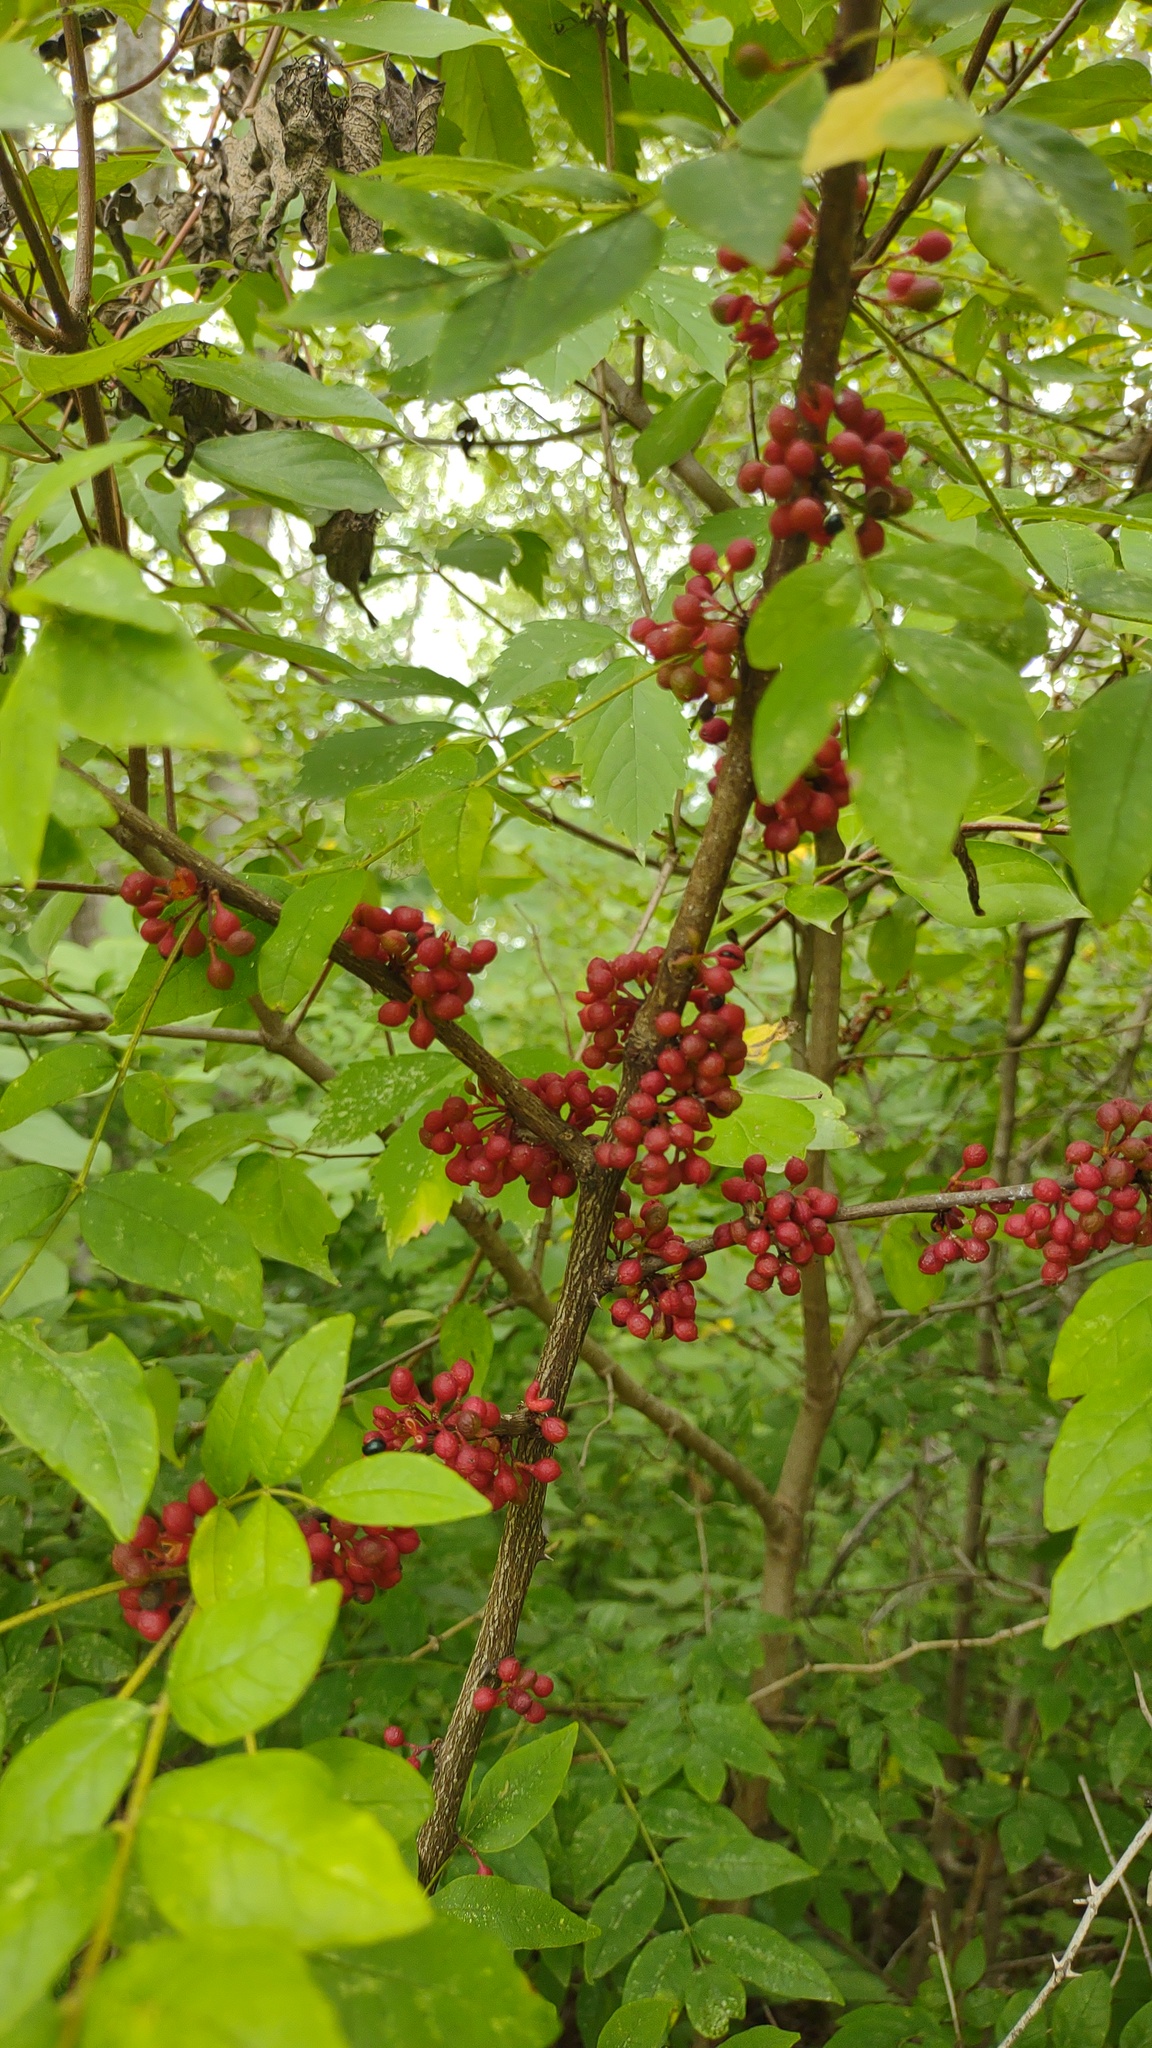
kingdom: Plantae
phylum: Tracheophyta
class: Magnoliopsida
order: Sapindales
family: Rutaceae
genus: Zanthoxylum
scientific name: Zanthoxylum americanum
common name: Northern prickly-ash
